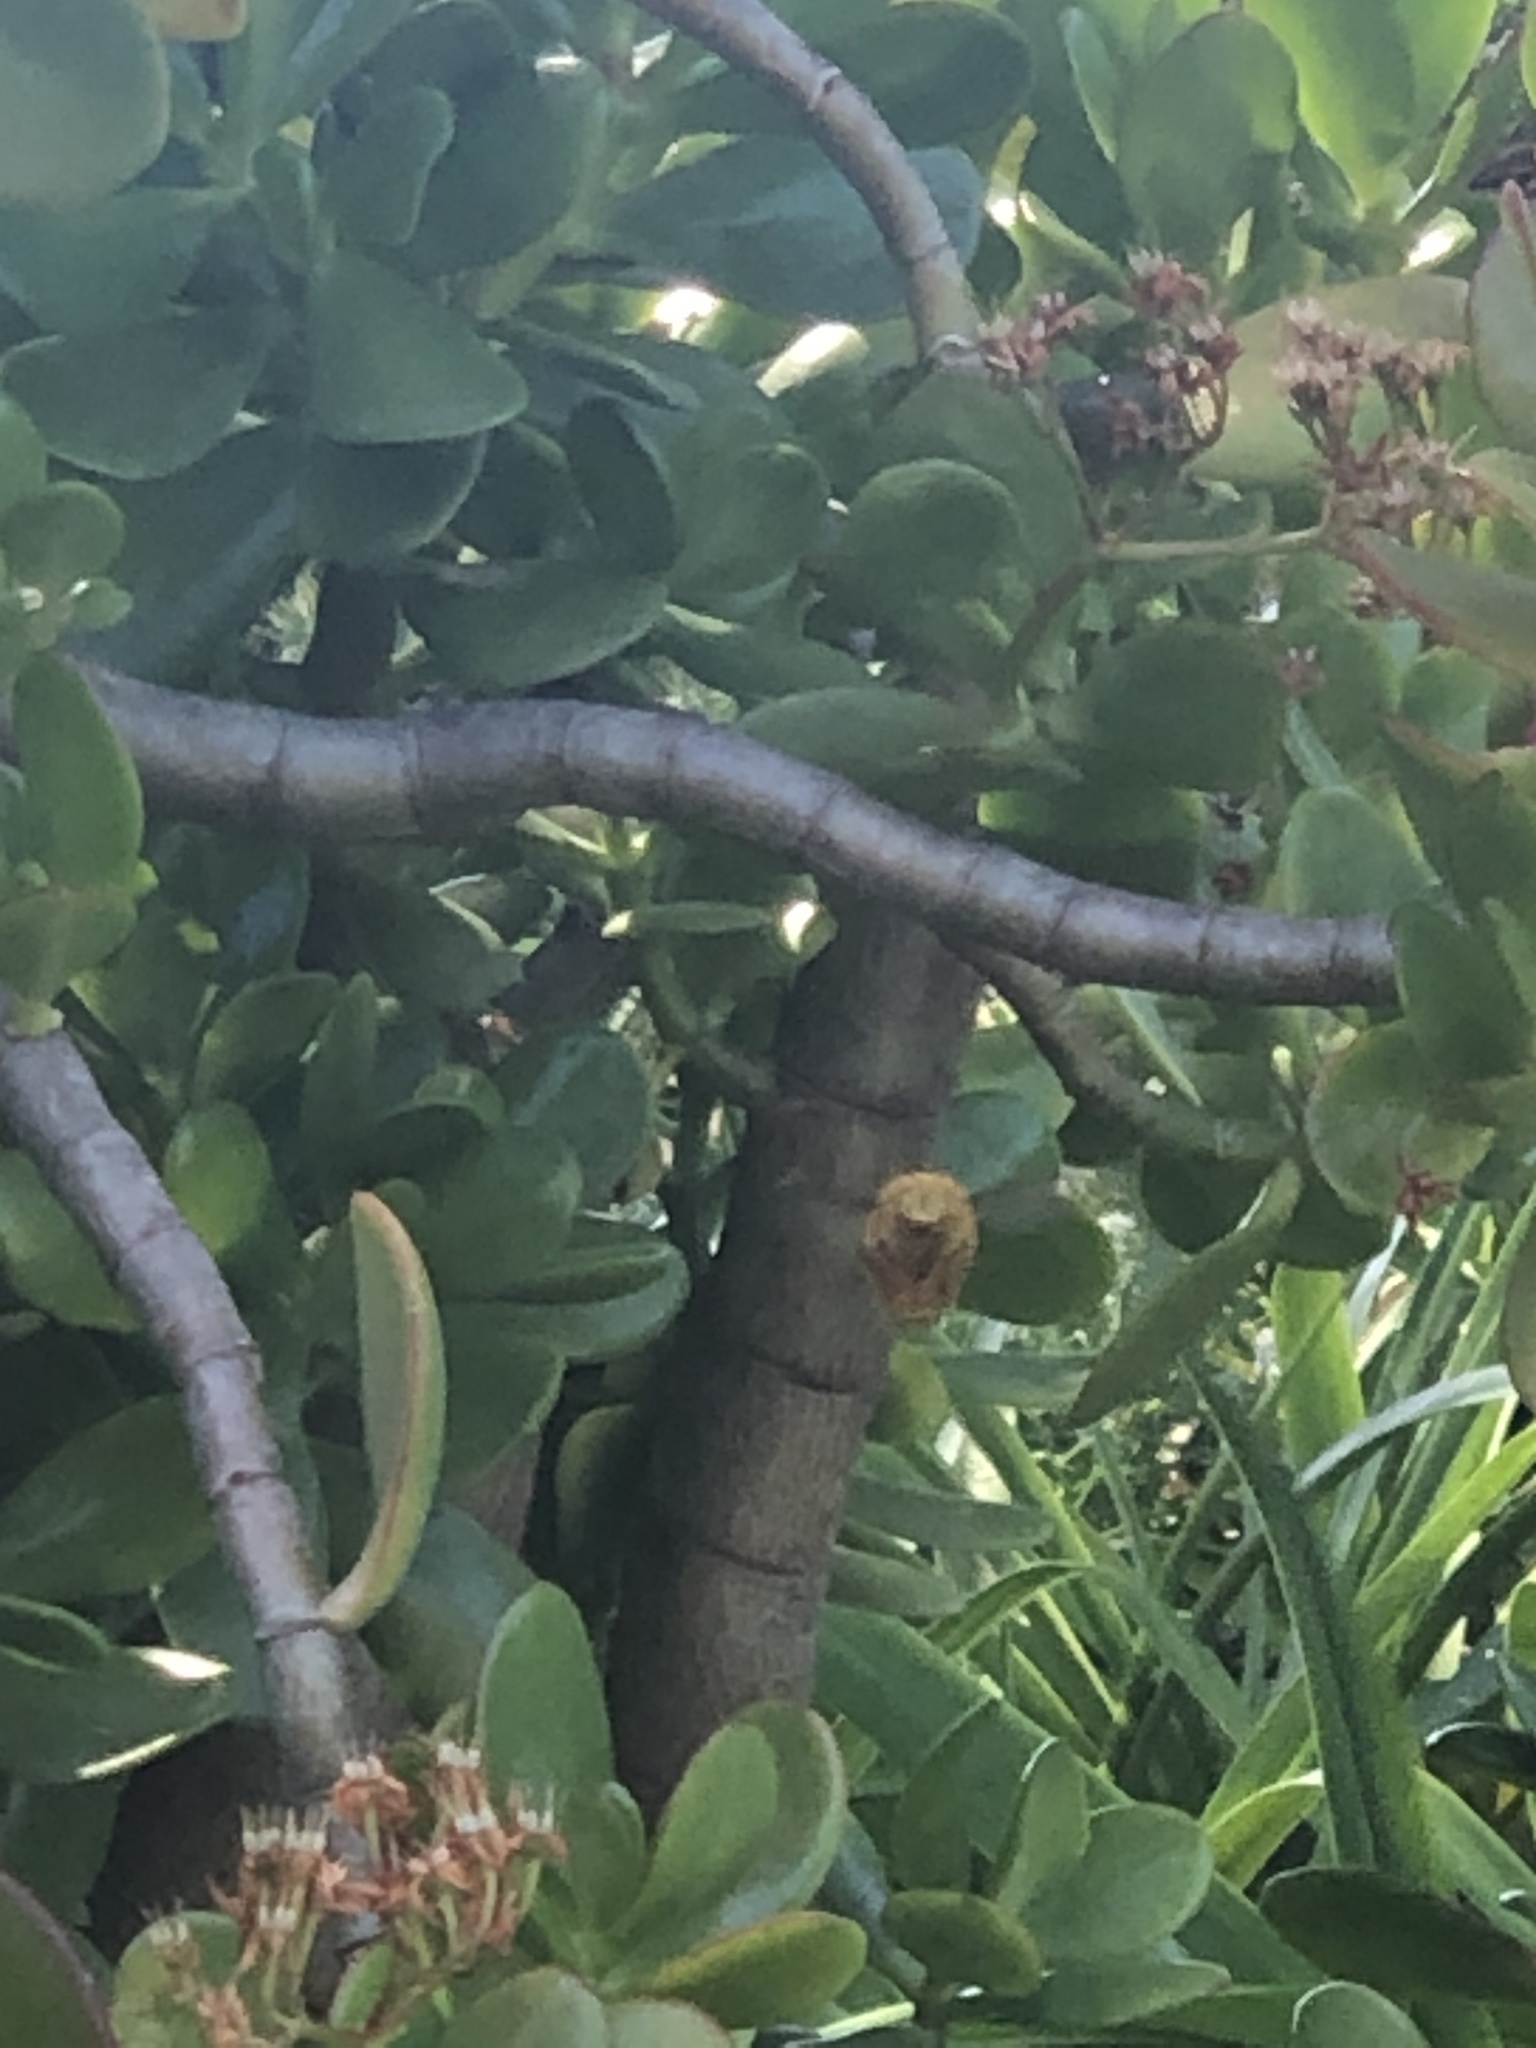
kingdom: Animalia
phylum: Arthropoda
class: Insecta
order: Hymenoptera
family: Apidae
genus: Xylocopa
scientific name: Xylocopa sonorina
